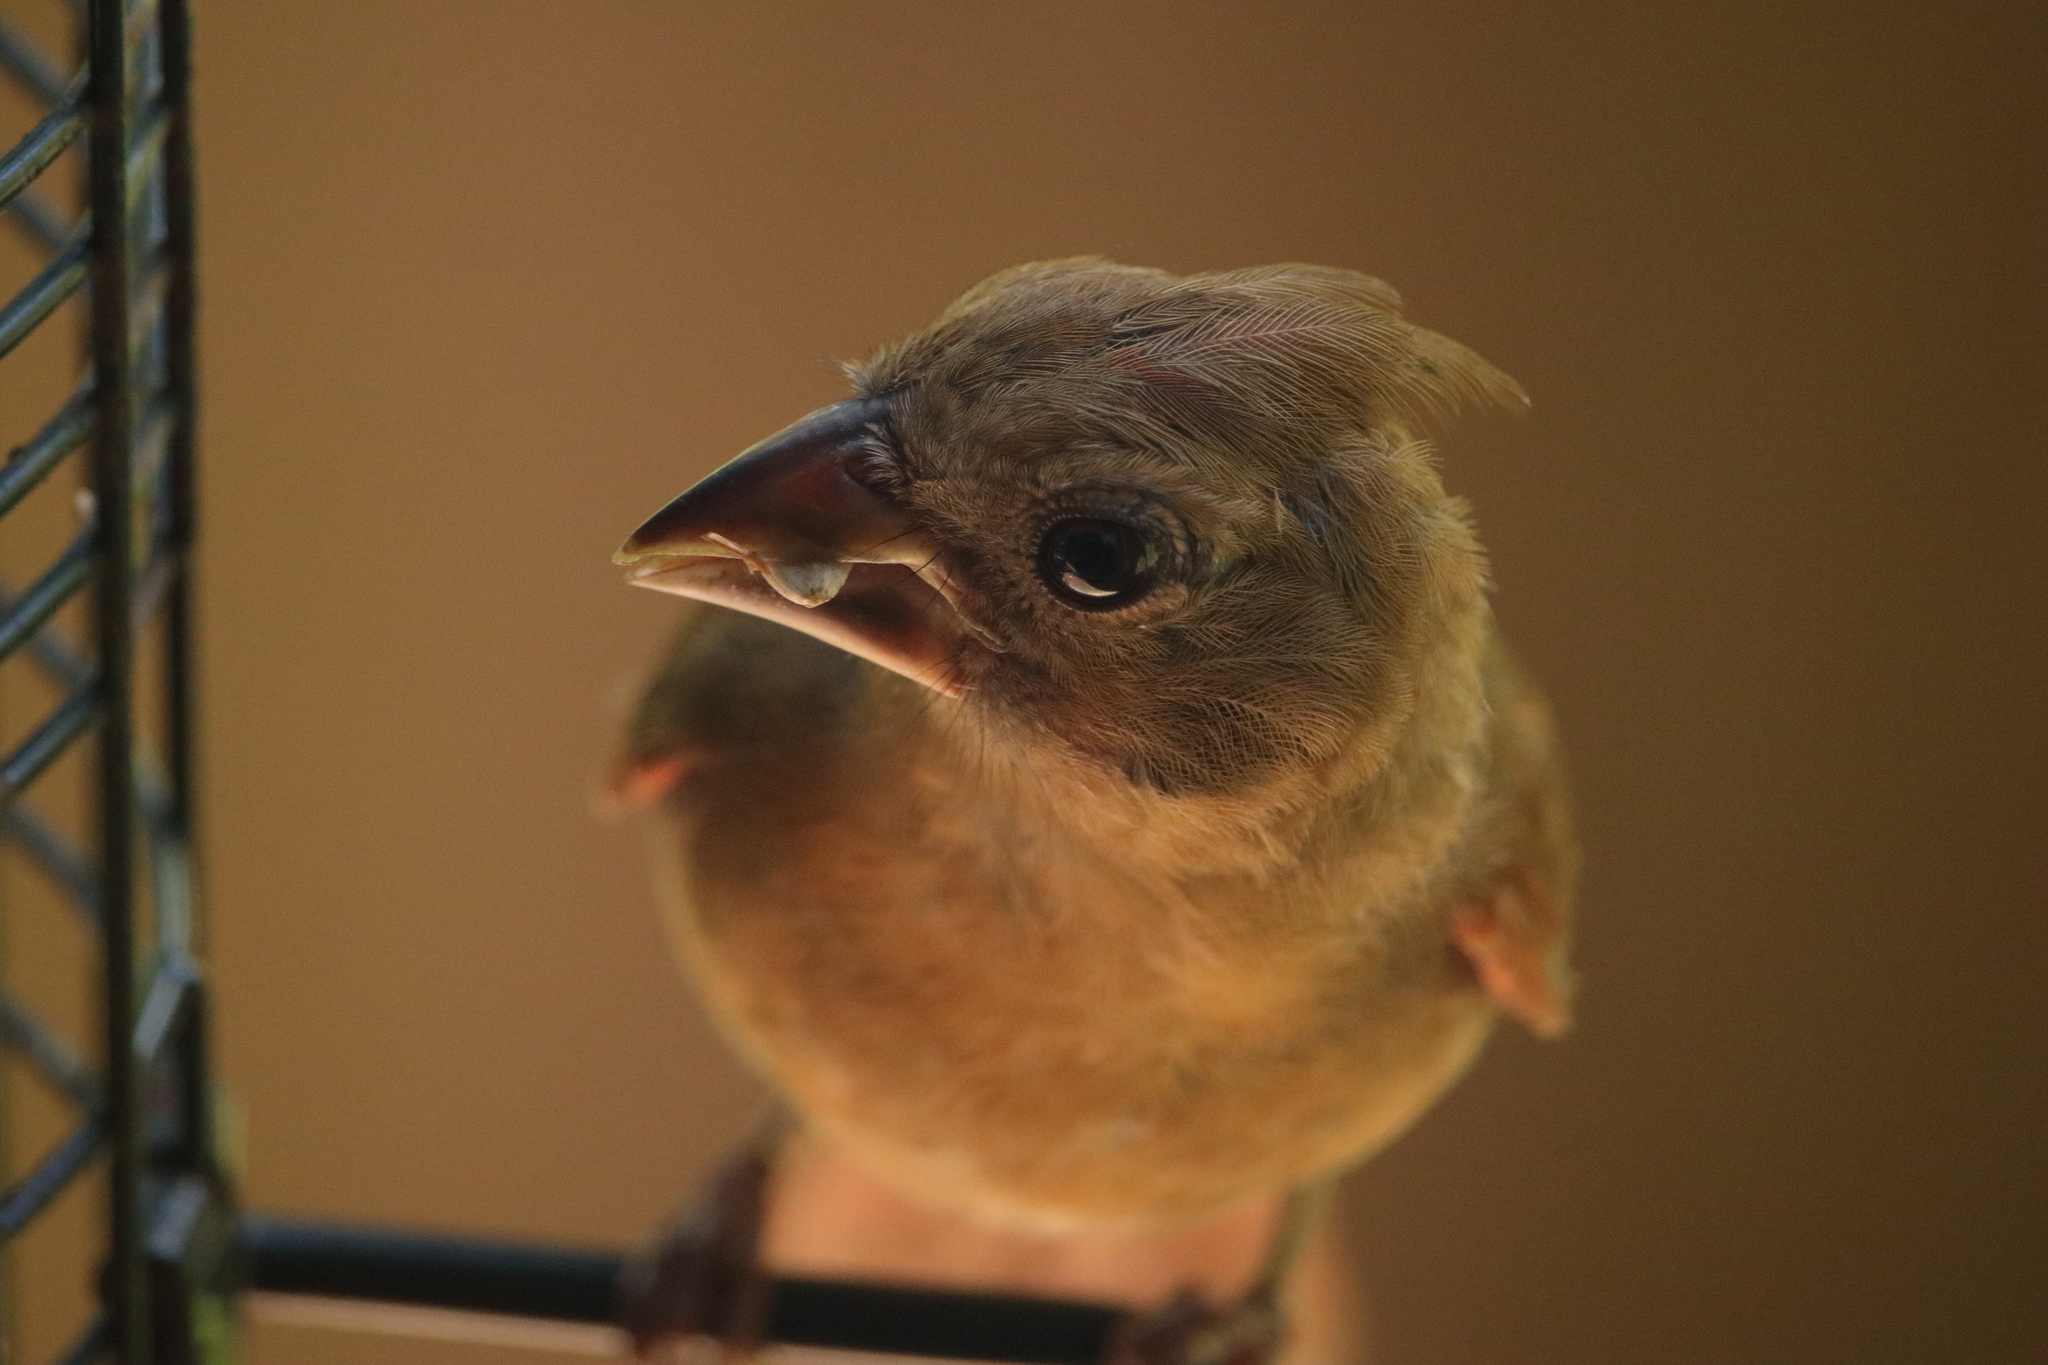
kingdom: Animalia
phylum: Chordata
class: Aves
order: Passeriformes
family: Cardinalidae
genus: Cardinalis
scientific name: Cardinalis cardinalis
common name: Northern cardinal
